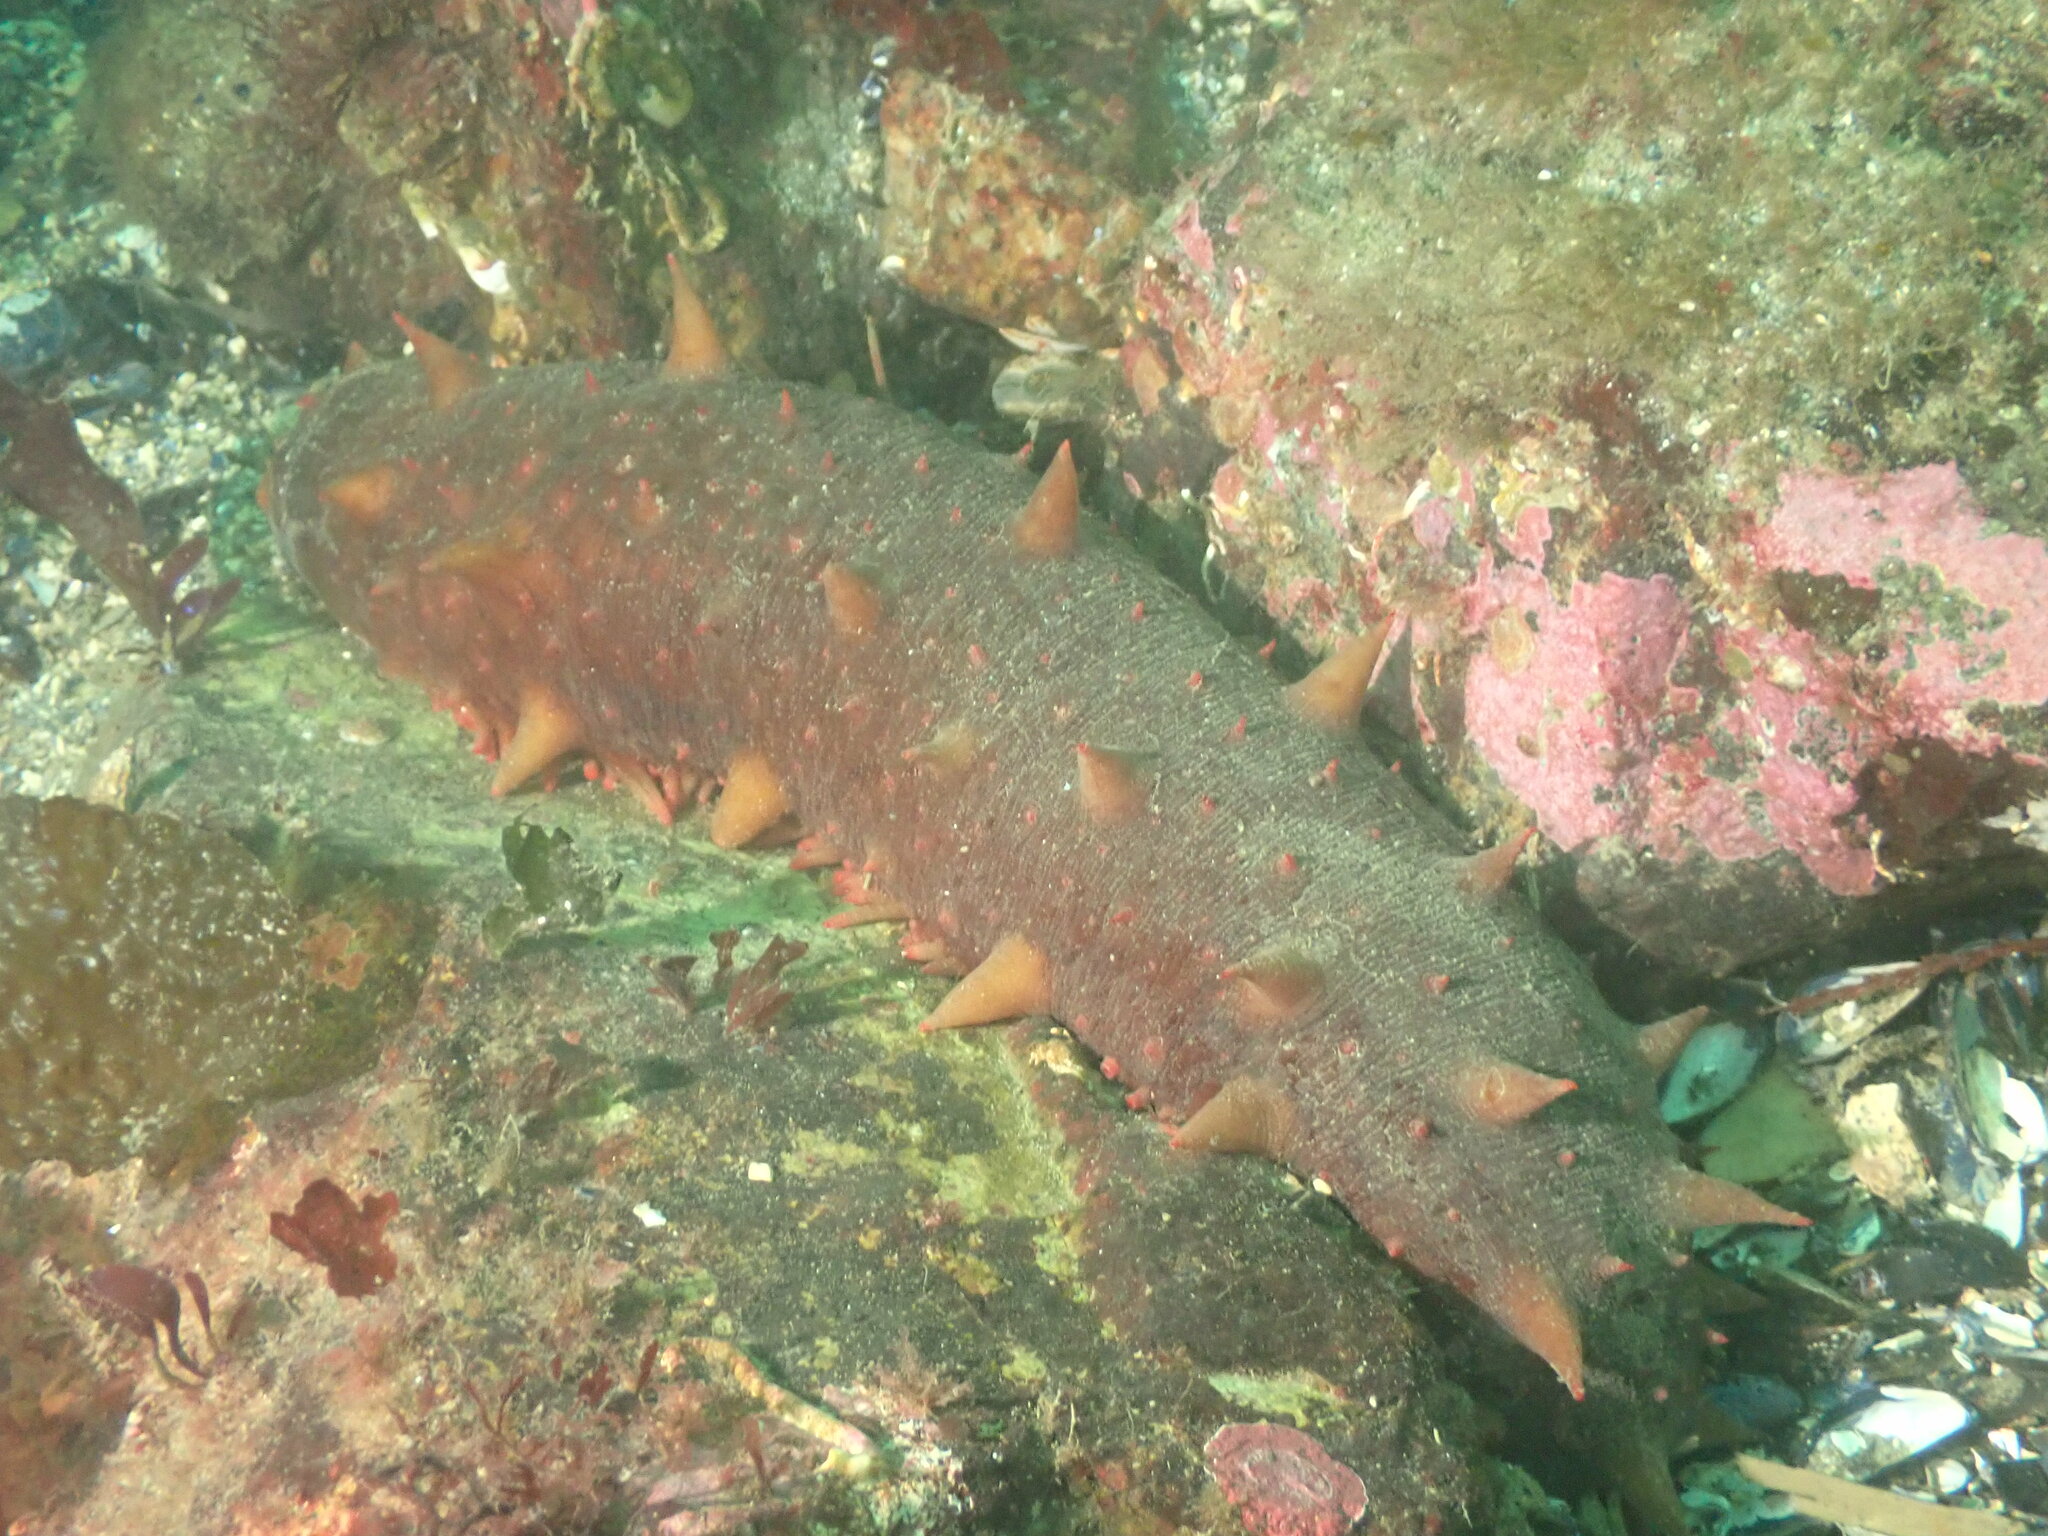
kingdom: Animalia
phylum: Echinodermata
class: Holothuroidea
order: Synallactida
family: Stichopodidae
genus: Apostichopus
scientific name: Apostichopus californicus
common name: California sea cucumber
